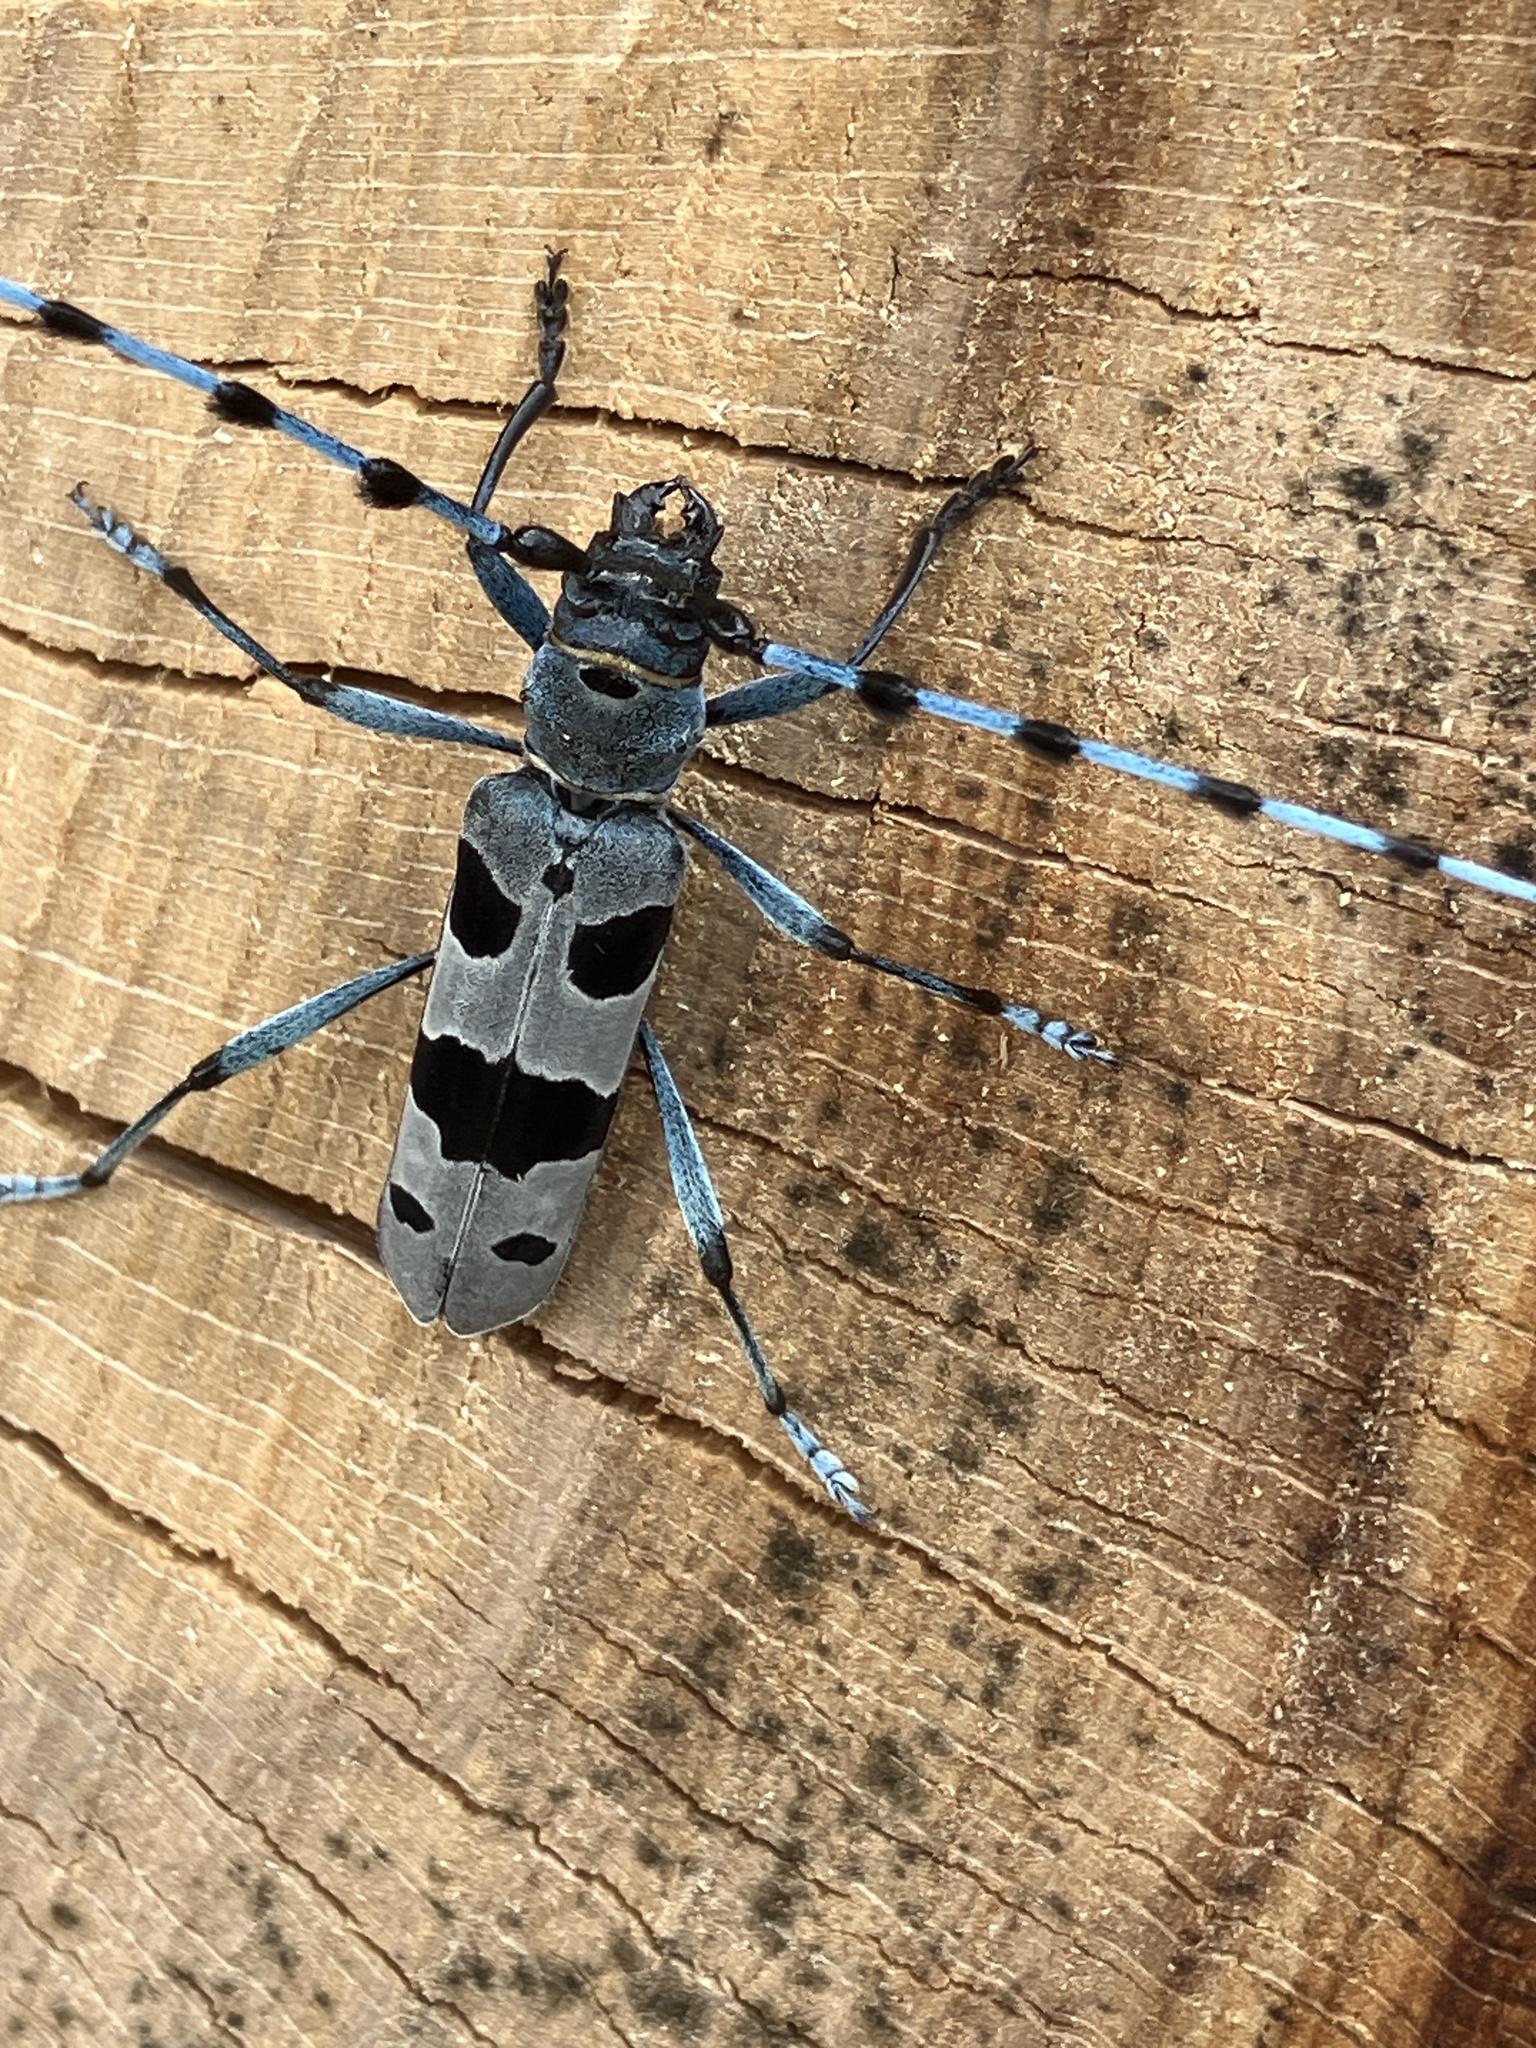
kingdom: Animalia
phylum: Arthropoda
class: Insecta
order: Coleoptera
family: Cerambycidae
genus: Rosalia
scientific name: Rosalia alpina
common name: Rosalia longicorn
